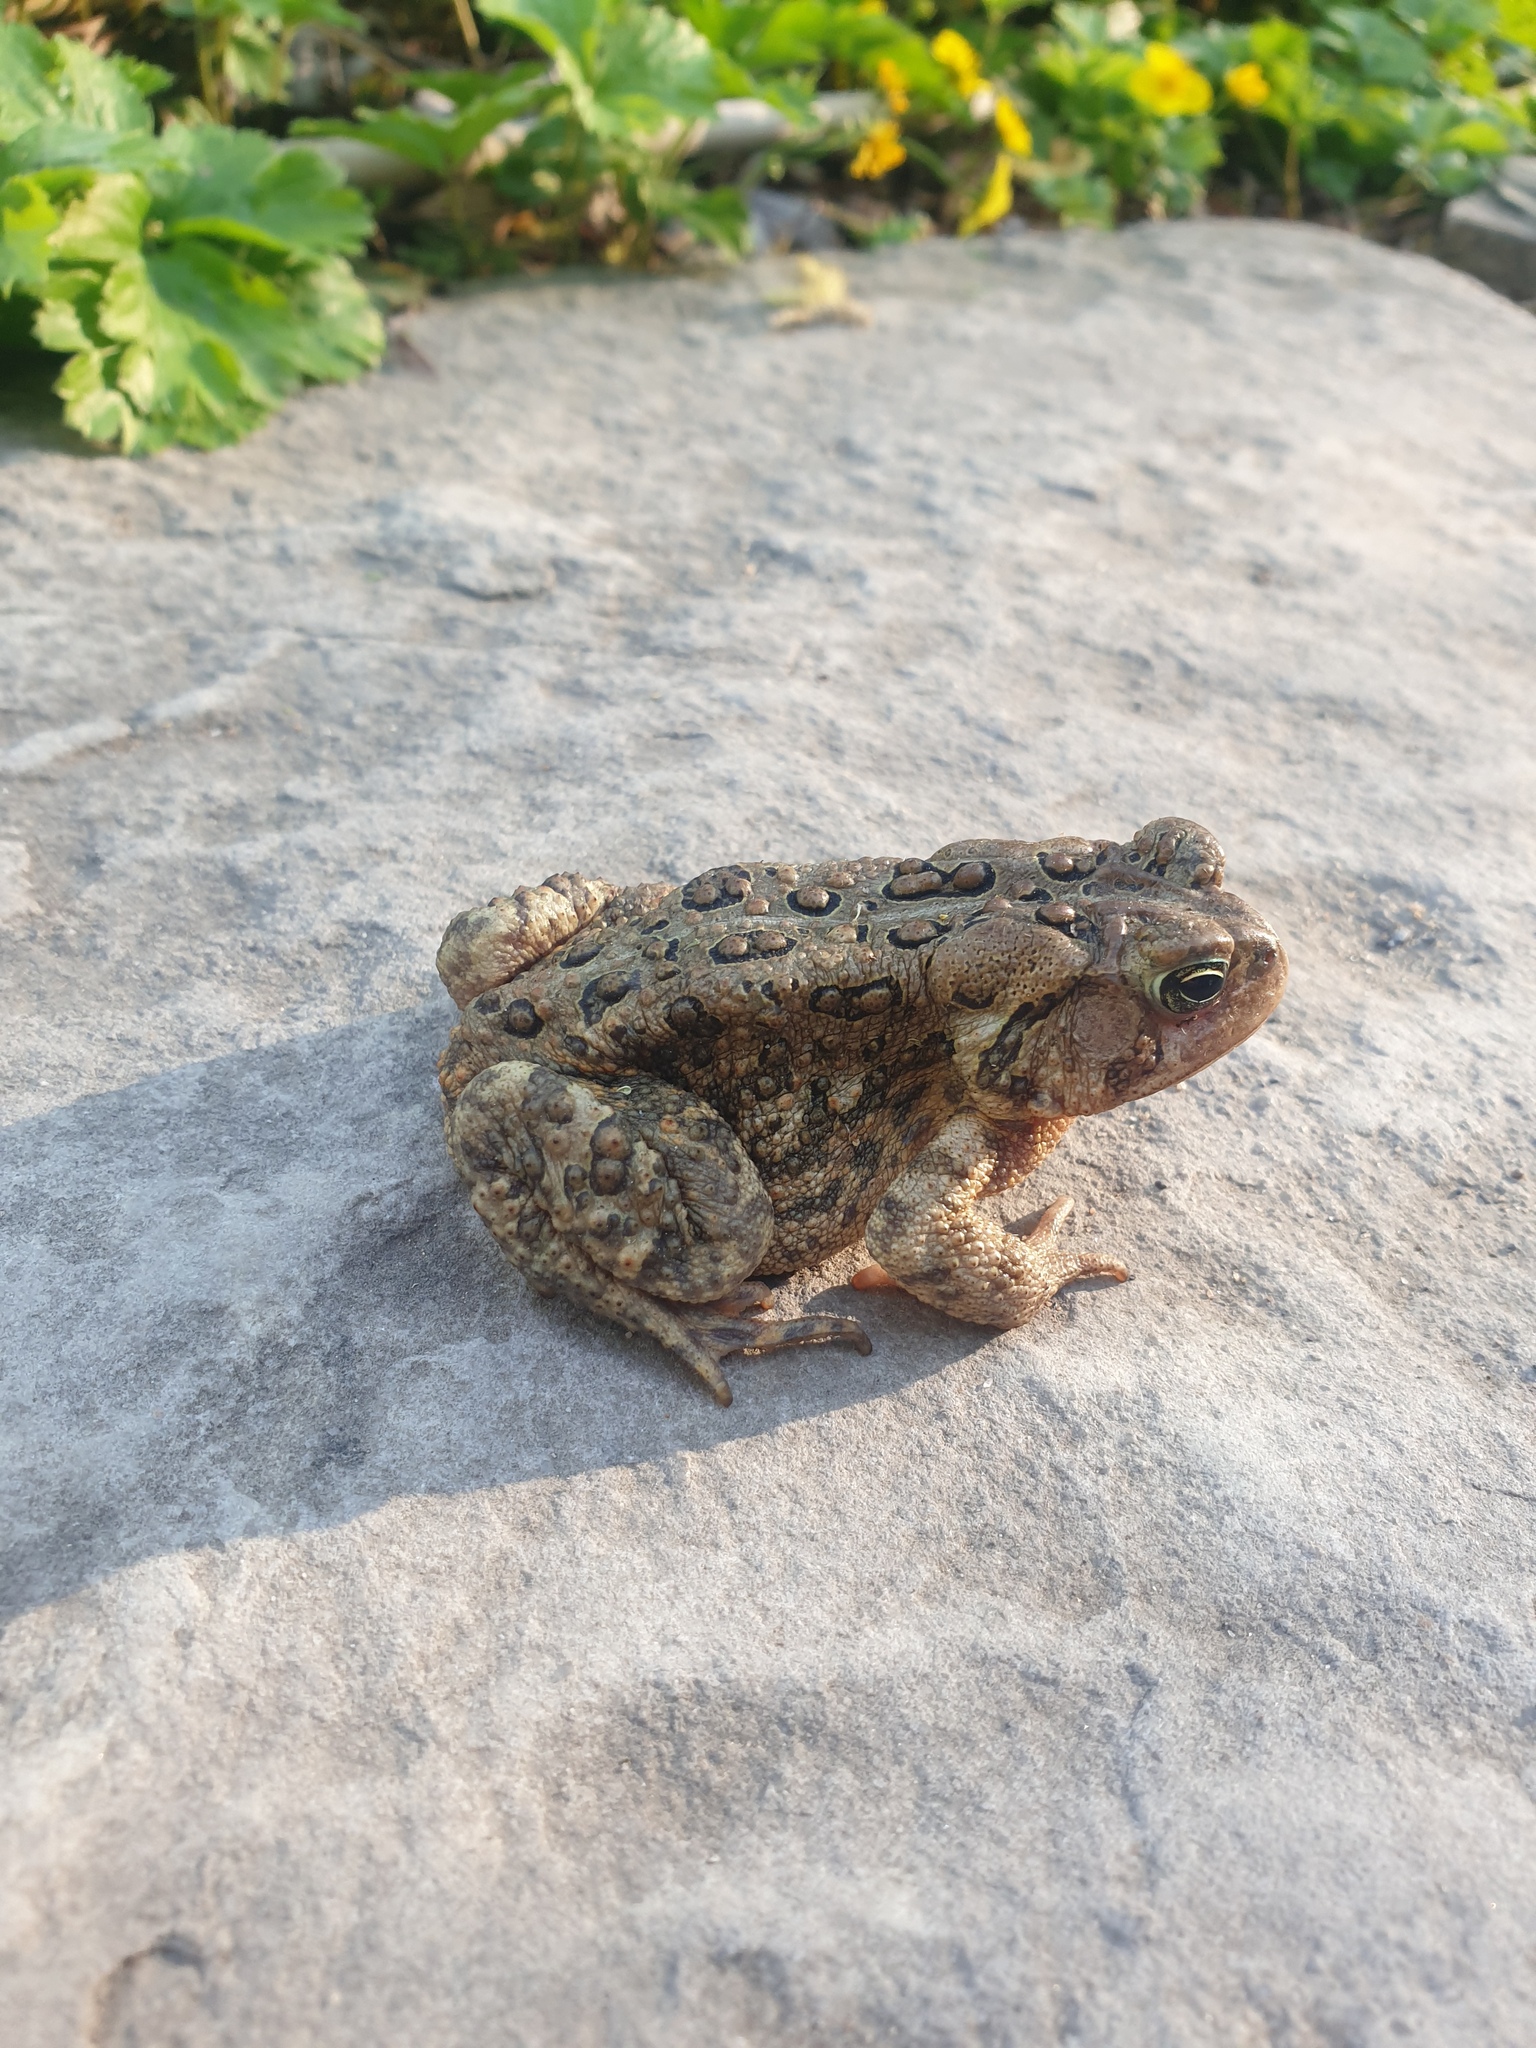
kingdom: Animalia
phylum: Chordata
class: Amphibia
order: Anura
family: Bufonidae
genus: Anaxyrus
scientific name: Anaxyrus americanus
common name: American toad
